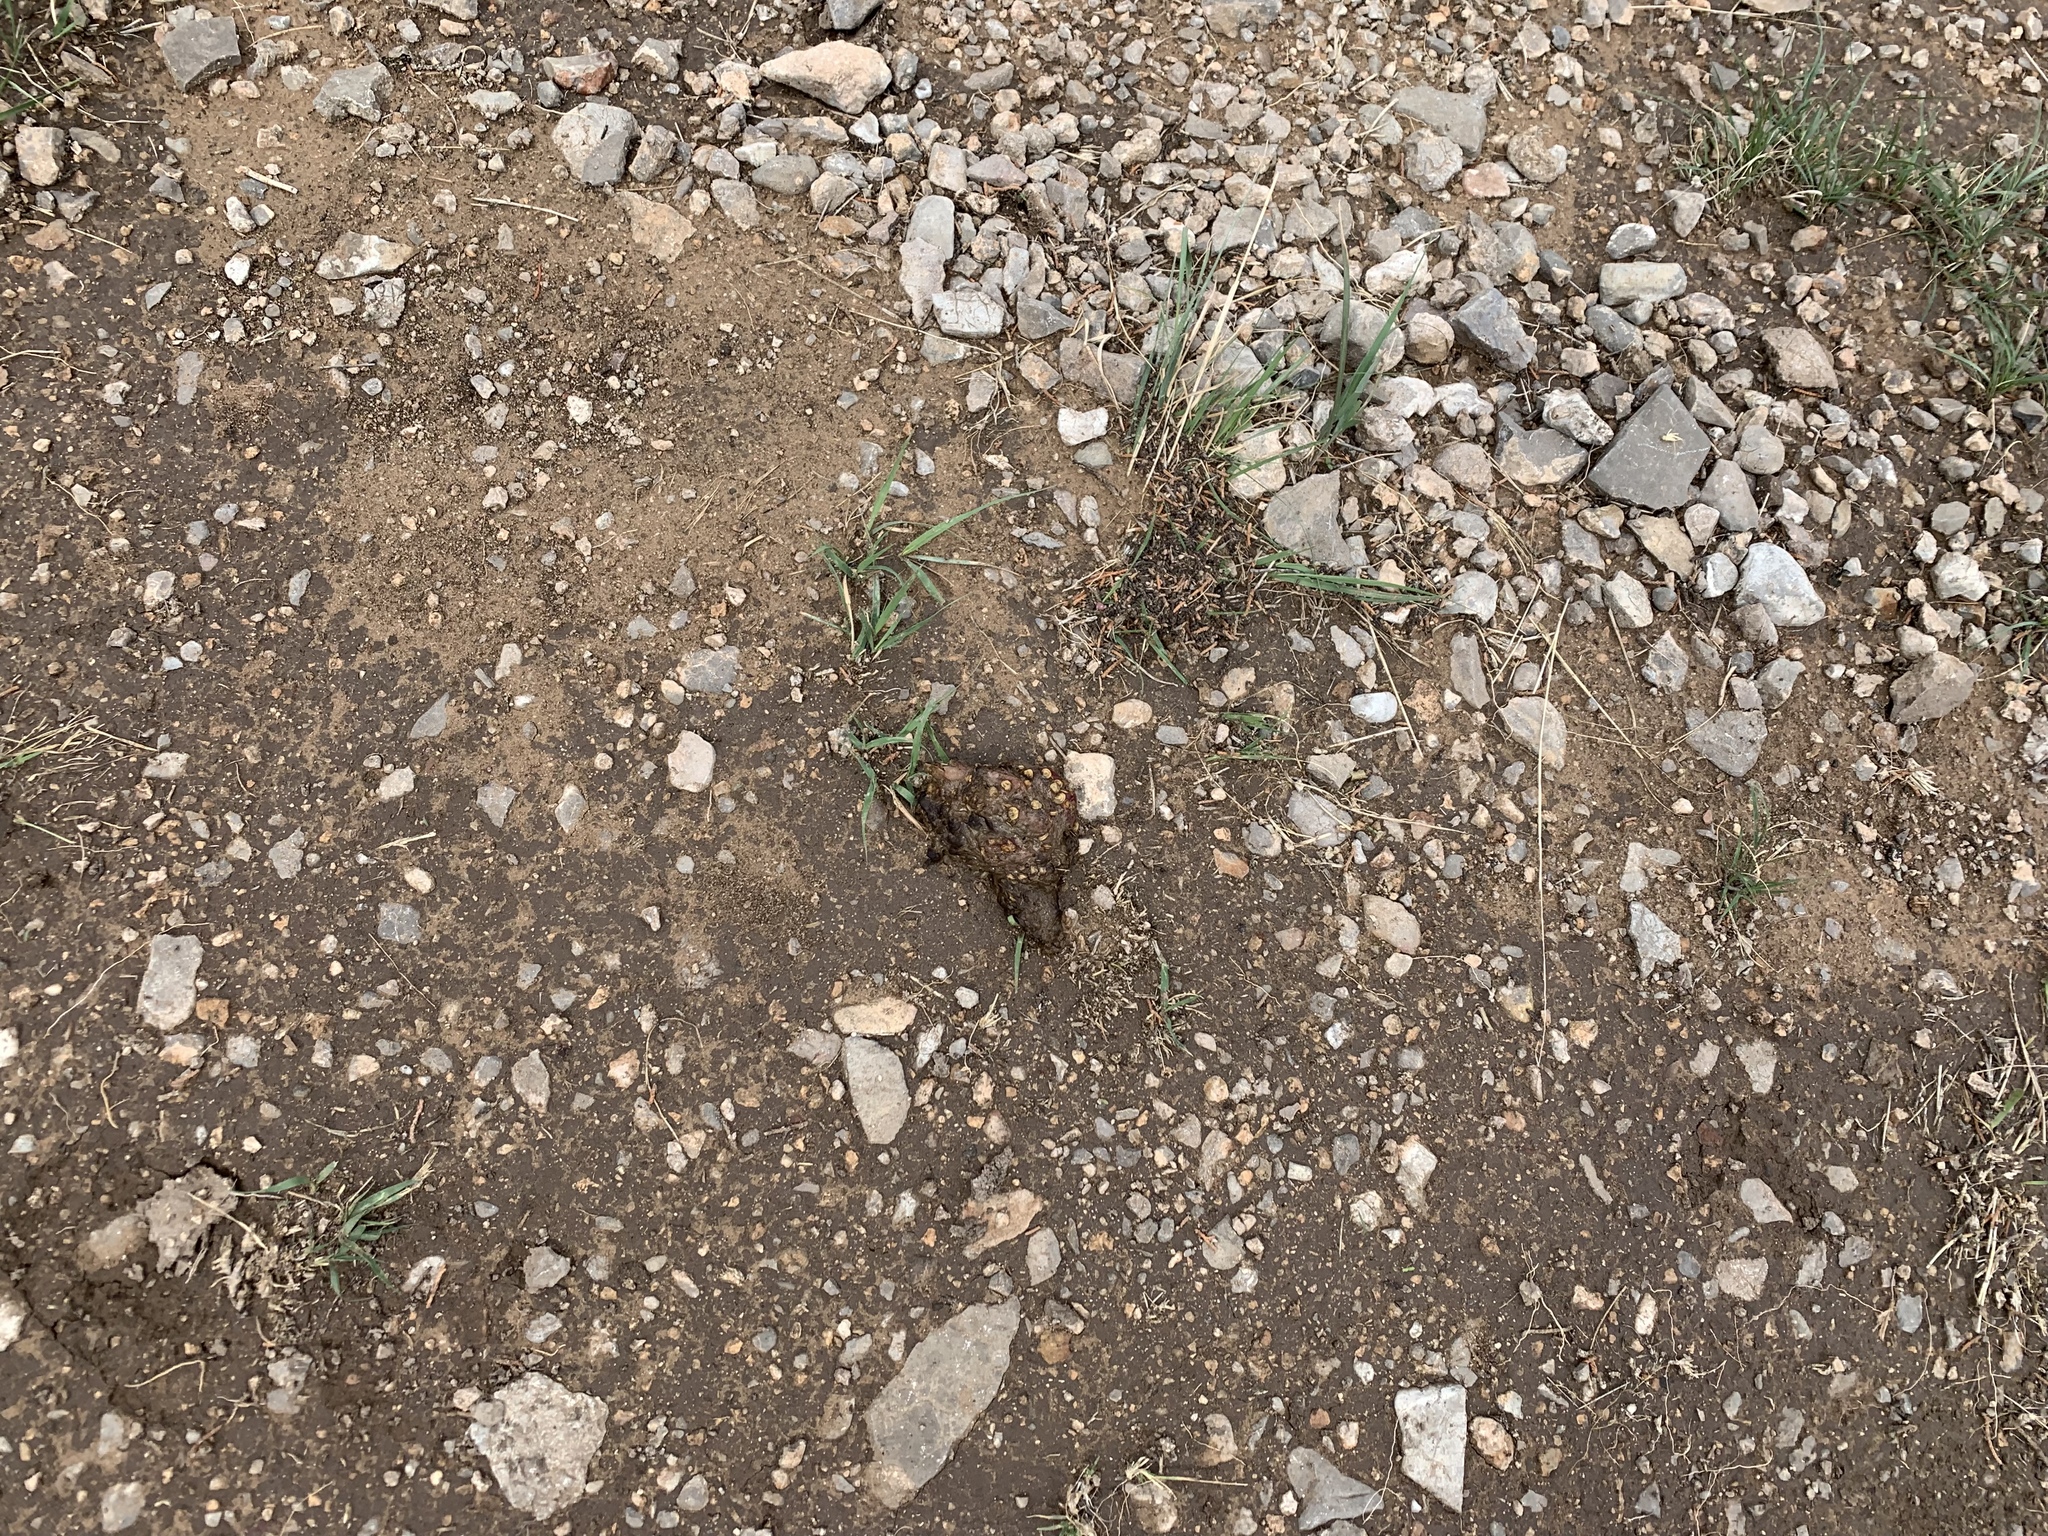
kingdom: Animalia
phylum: Chordata
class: Mammalia
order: Carnivora
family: Ursidae
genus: Ursus
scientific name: Ursus americanus
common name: American black bear
